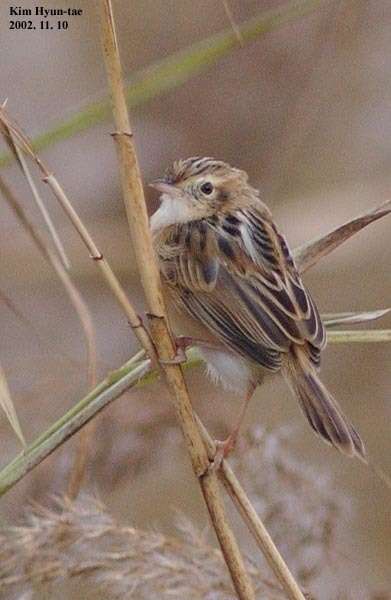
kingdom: Animalia
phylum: Chordata
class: Aves
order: Passeriformes
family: Cisticolidae
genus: Cisticola
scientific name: Cisticola juncidis
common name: Zitting cisticola
